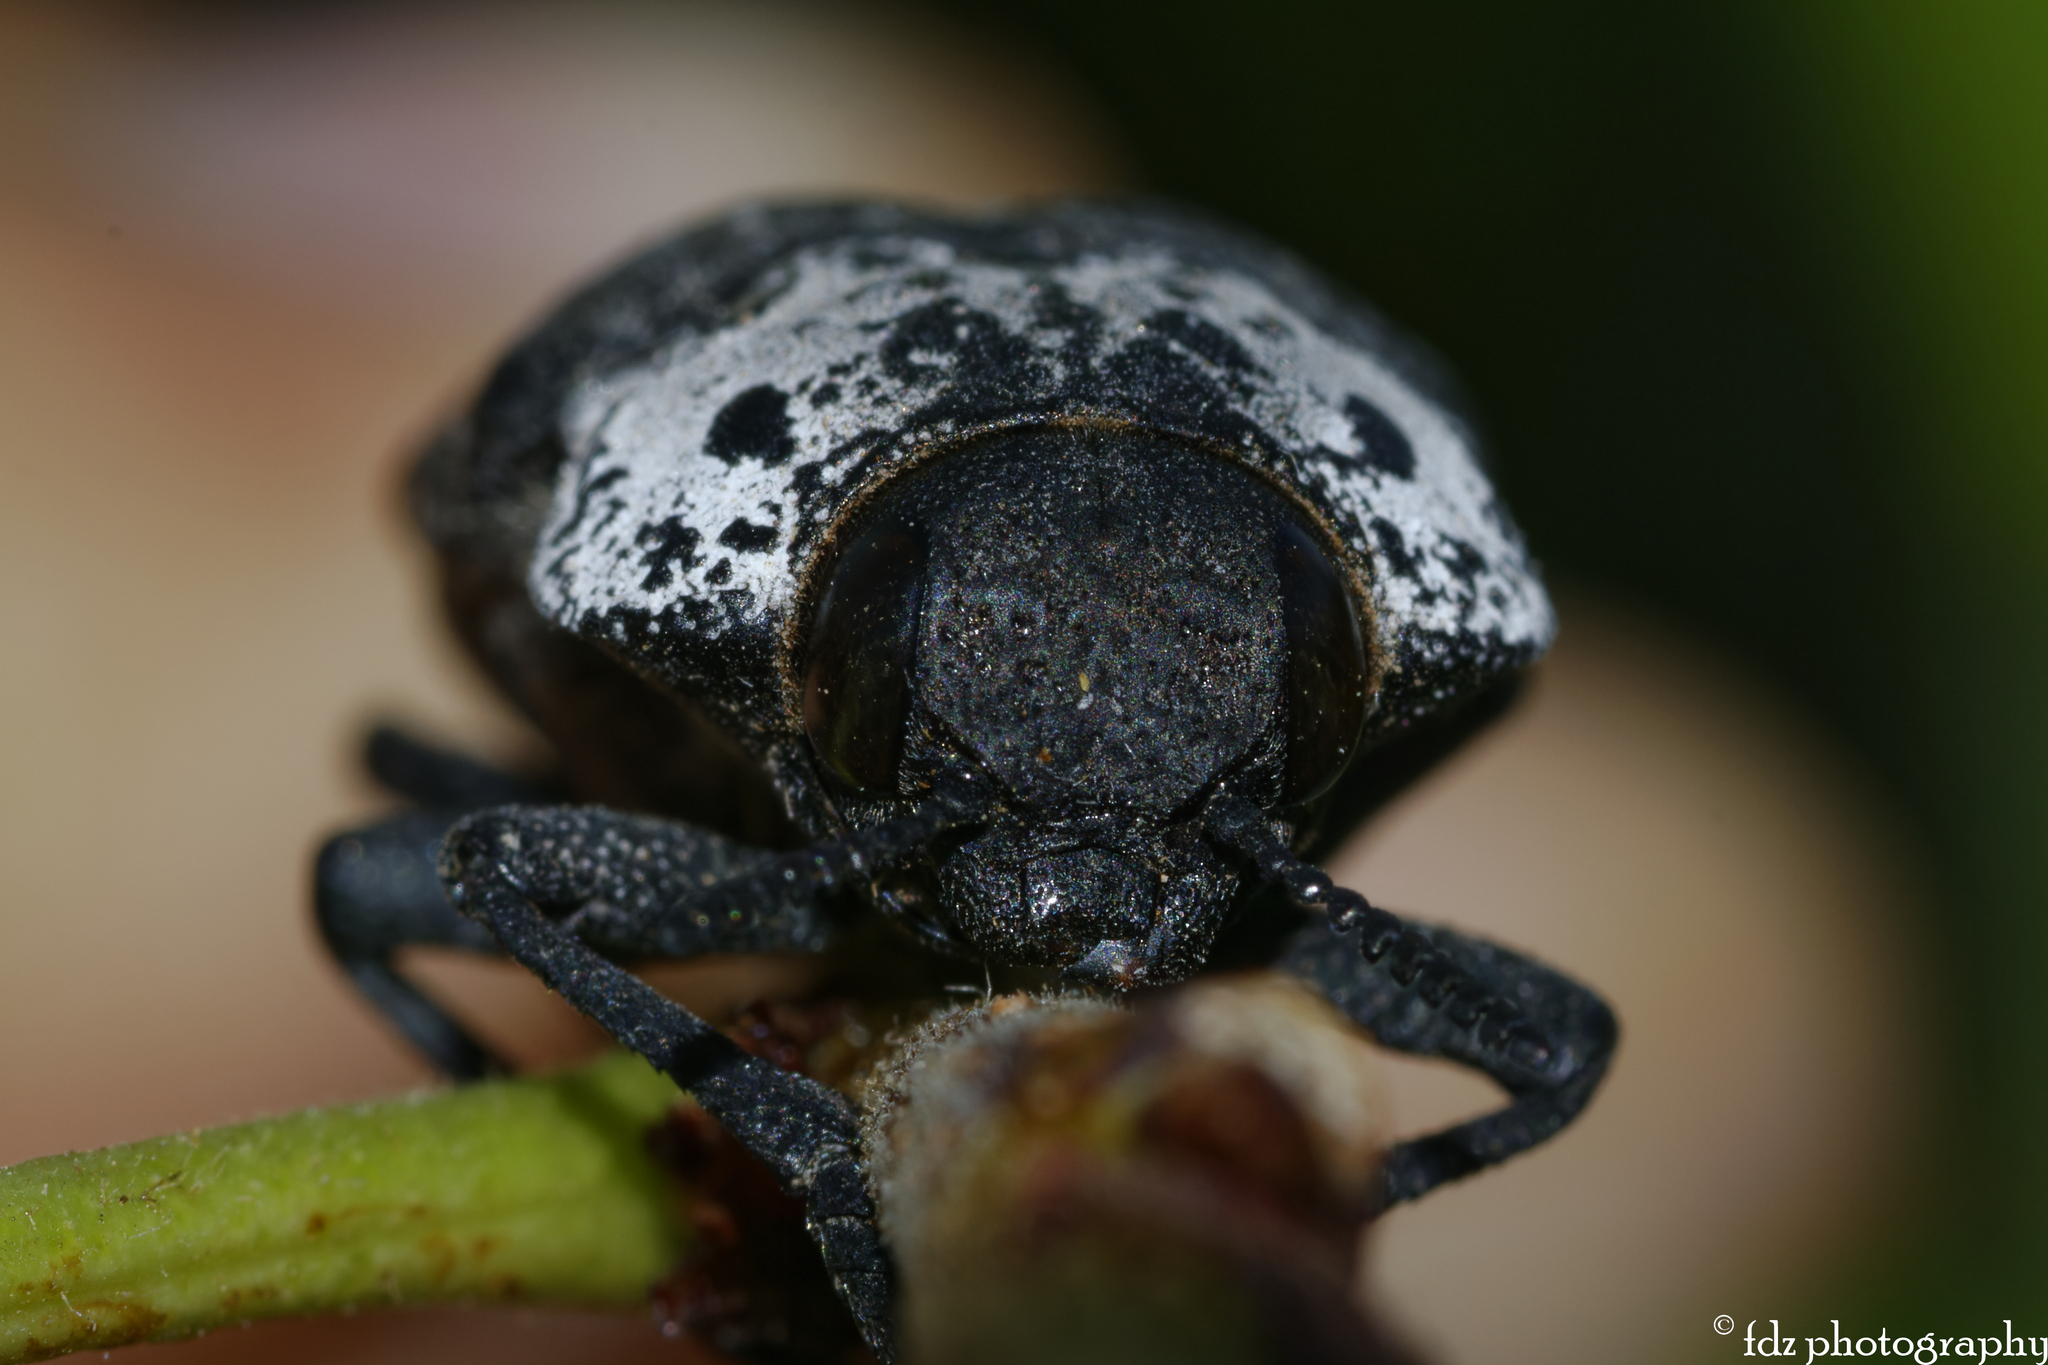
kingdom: Animalia
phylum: Arthropoda
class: Insecta
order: Coleoptera
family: Buprestidae
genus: Capnodis
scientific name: Capnodis tenebrionis
